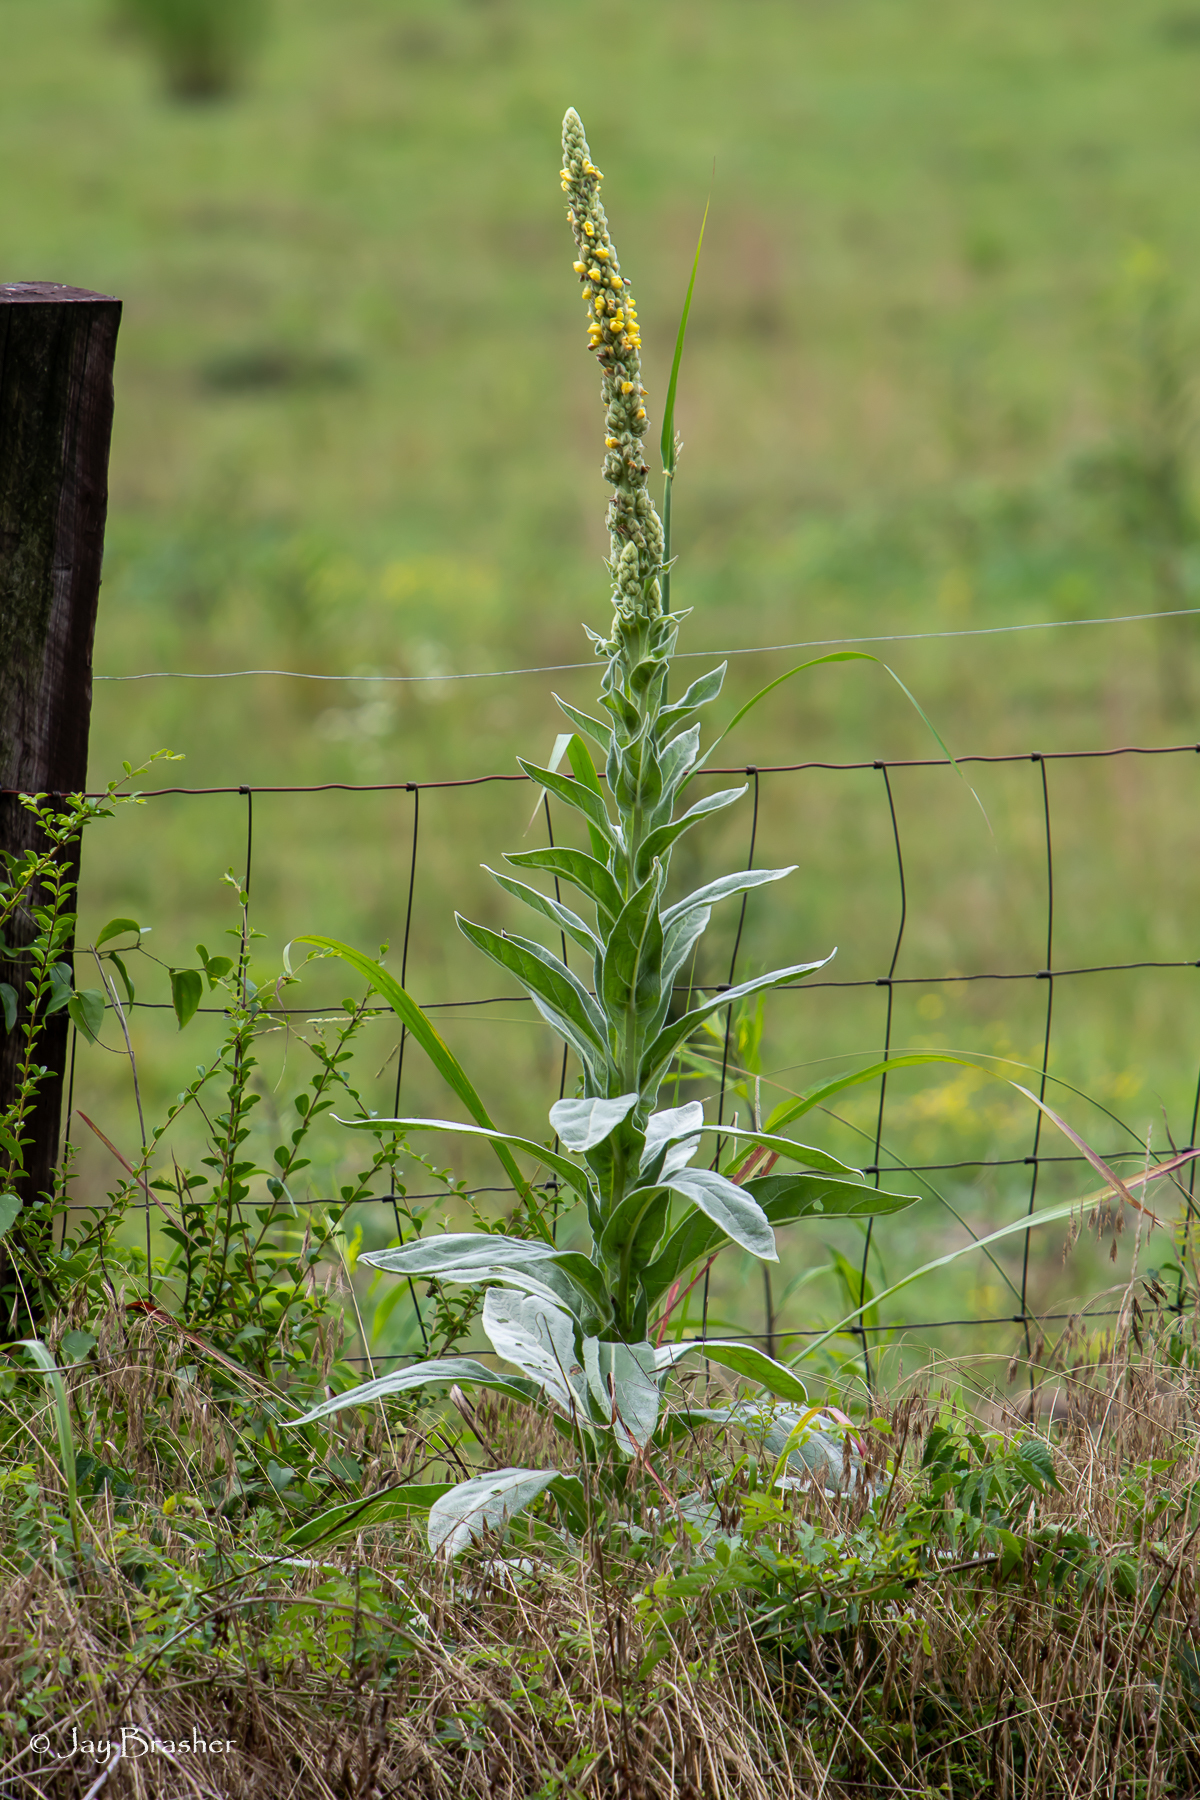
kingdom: Plantae
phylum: Tracheophyta
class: Magnoliopsida
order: Lamiales
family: Scrophulariaceae
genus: Verbascum
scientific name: Verbascum thapsus
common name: Common mullein
